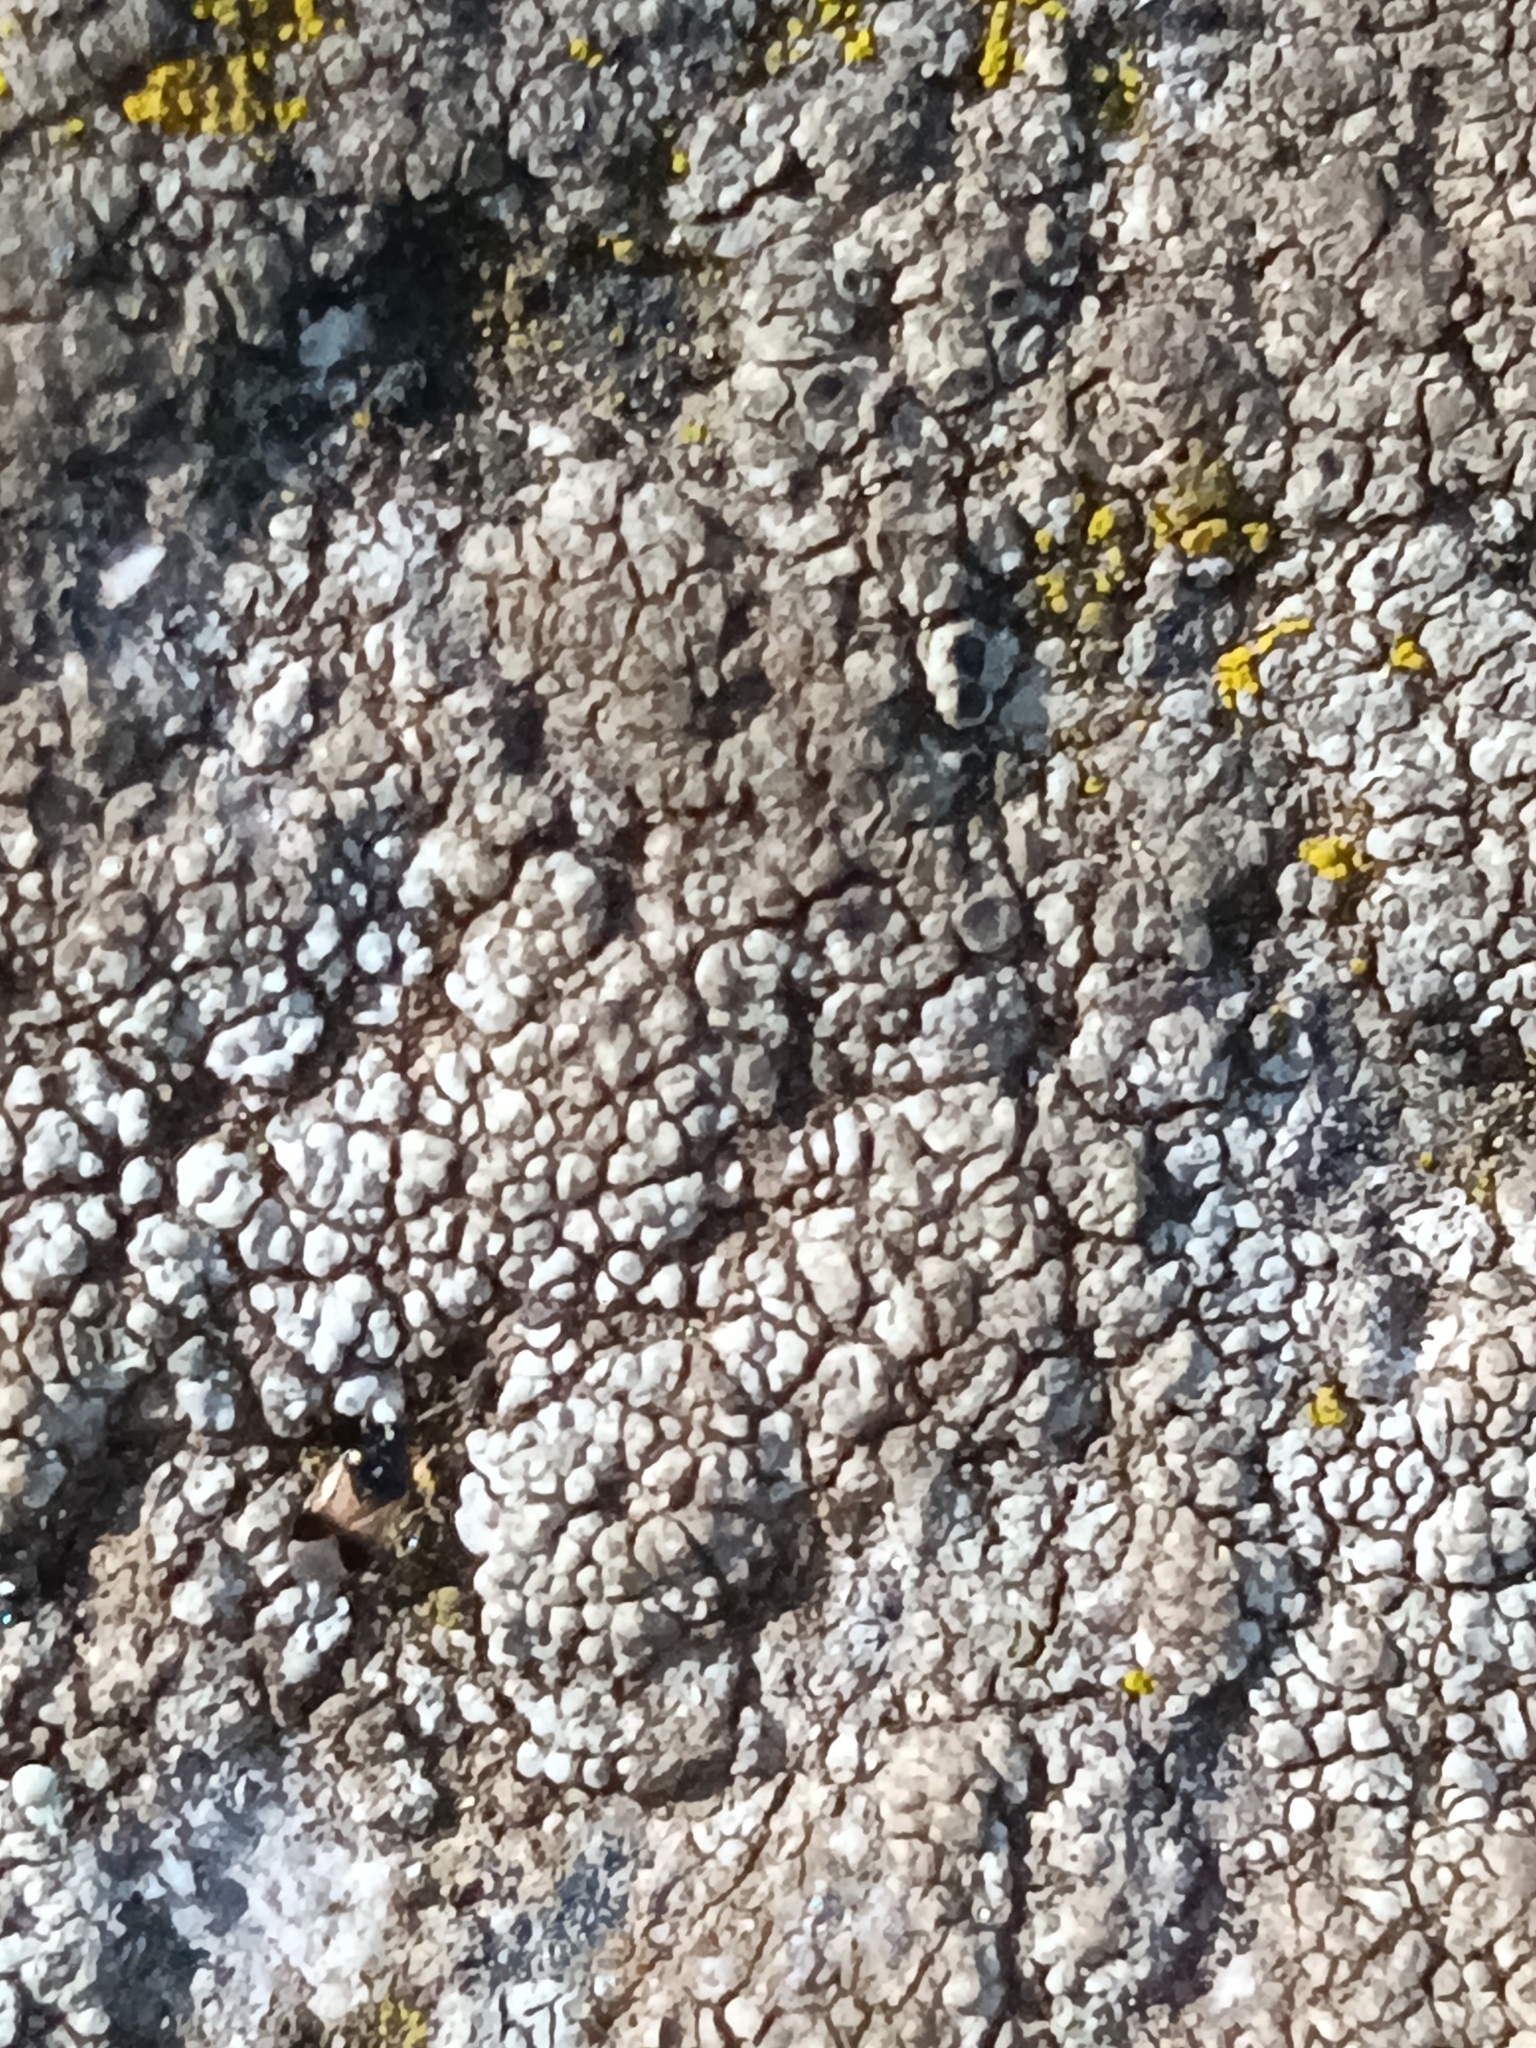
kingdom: Animalia
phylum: Arthropoda
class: Insecta
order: Hemiptera
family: Anthocoridae
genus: Orius
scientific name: Orius insidiosus
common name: Insidious flower bug
